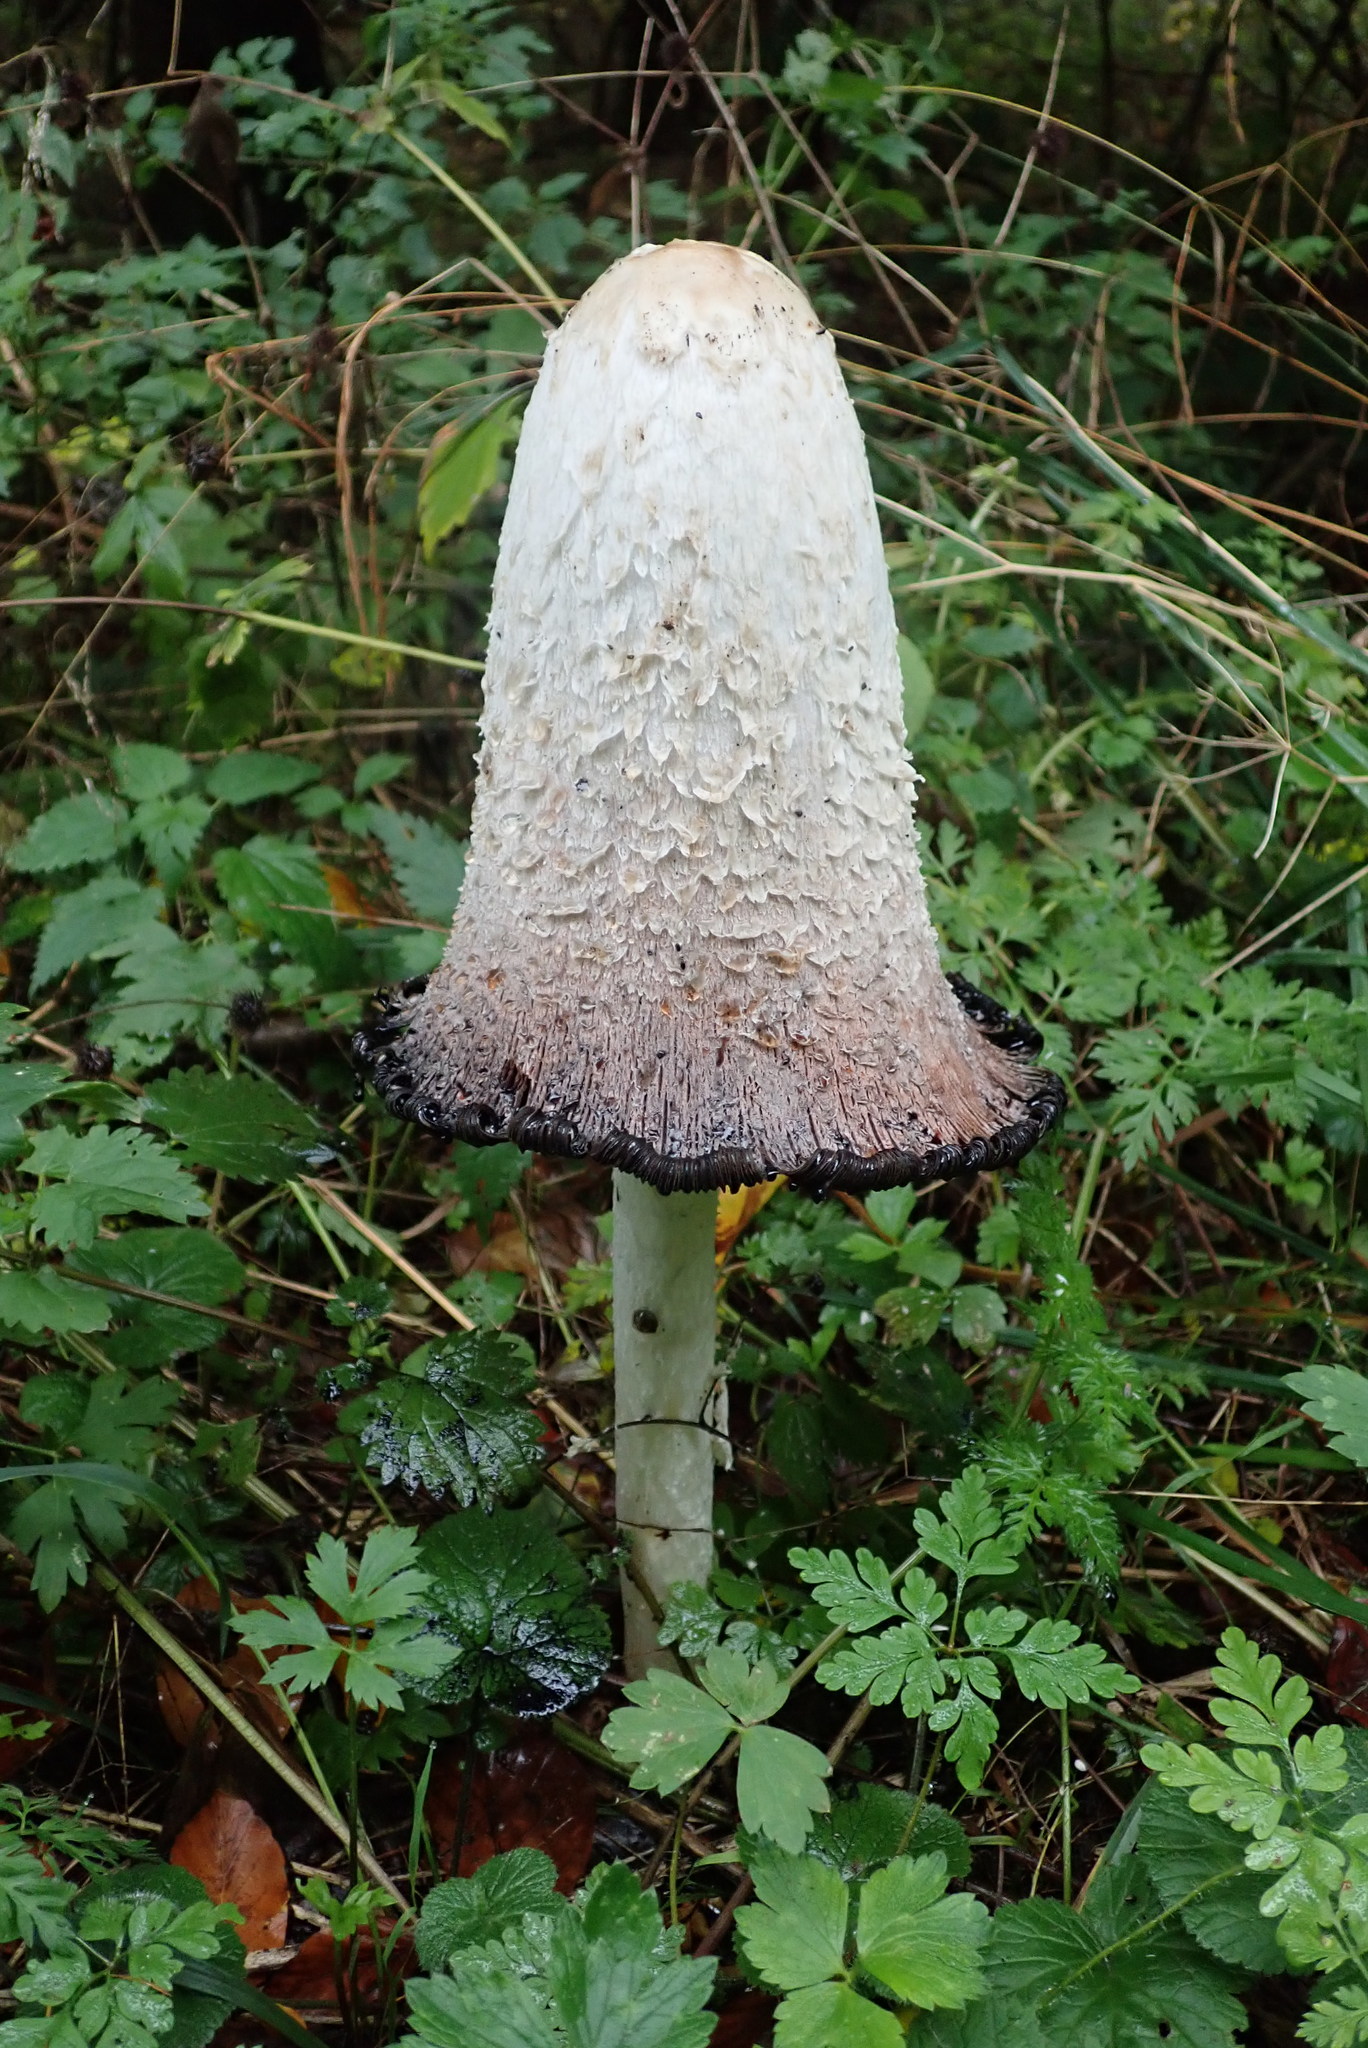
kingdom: Fungi
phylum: Basidiomycota
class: Agaricomycetes
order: Agaricales
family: Agaricaceae
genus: Coprinus
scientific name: Coprinus comatus
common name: Lawyer's wig
